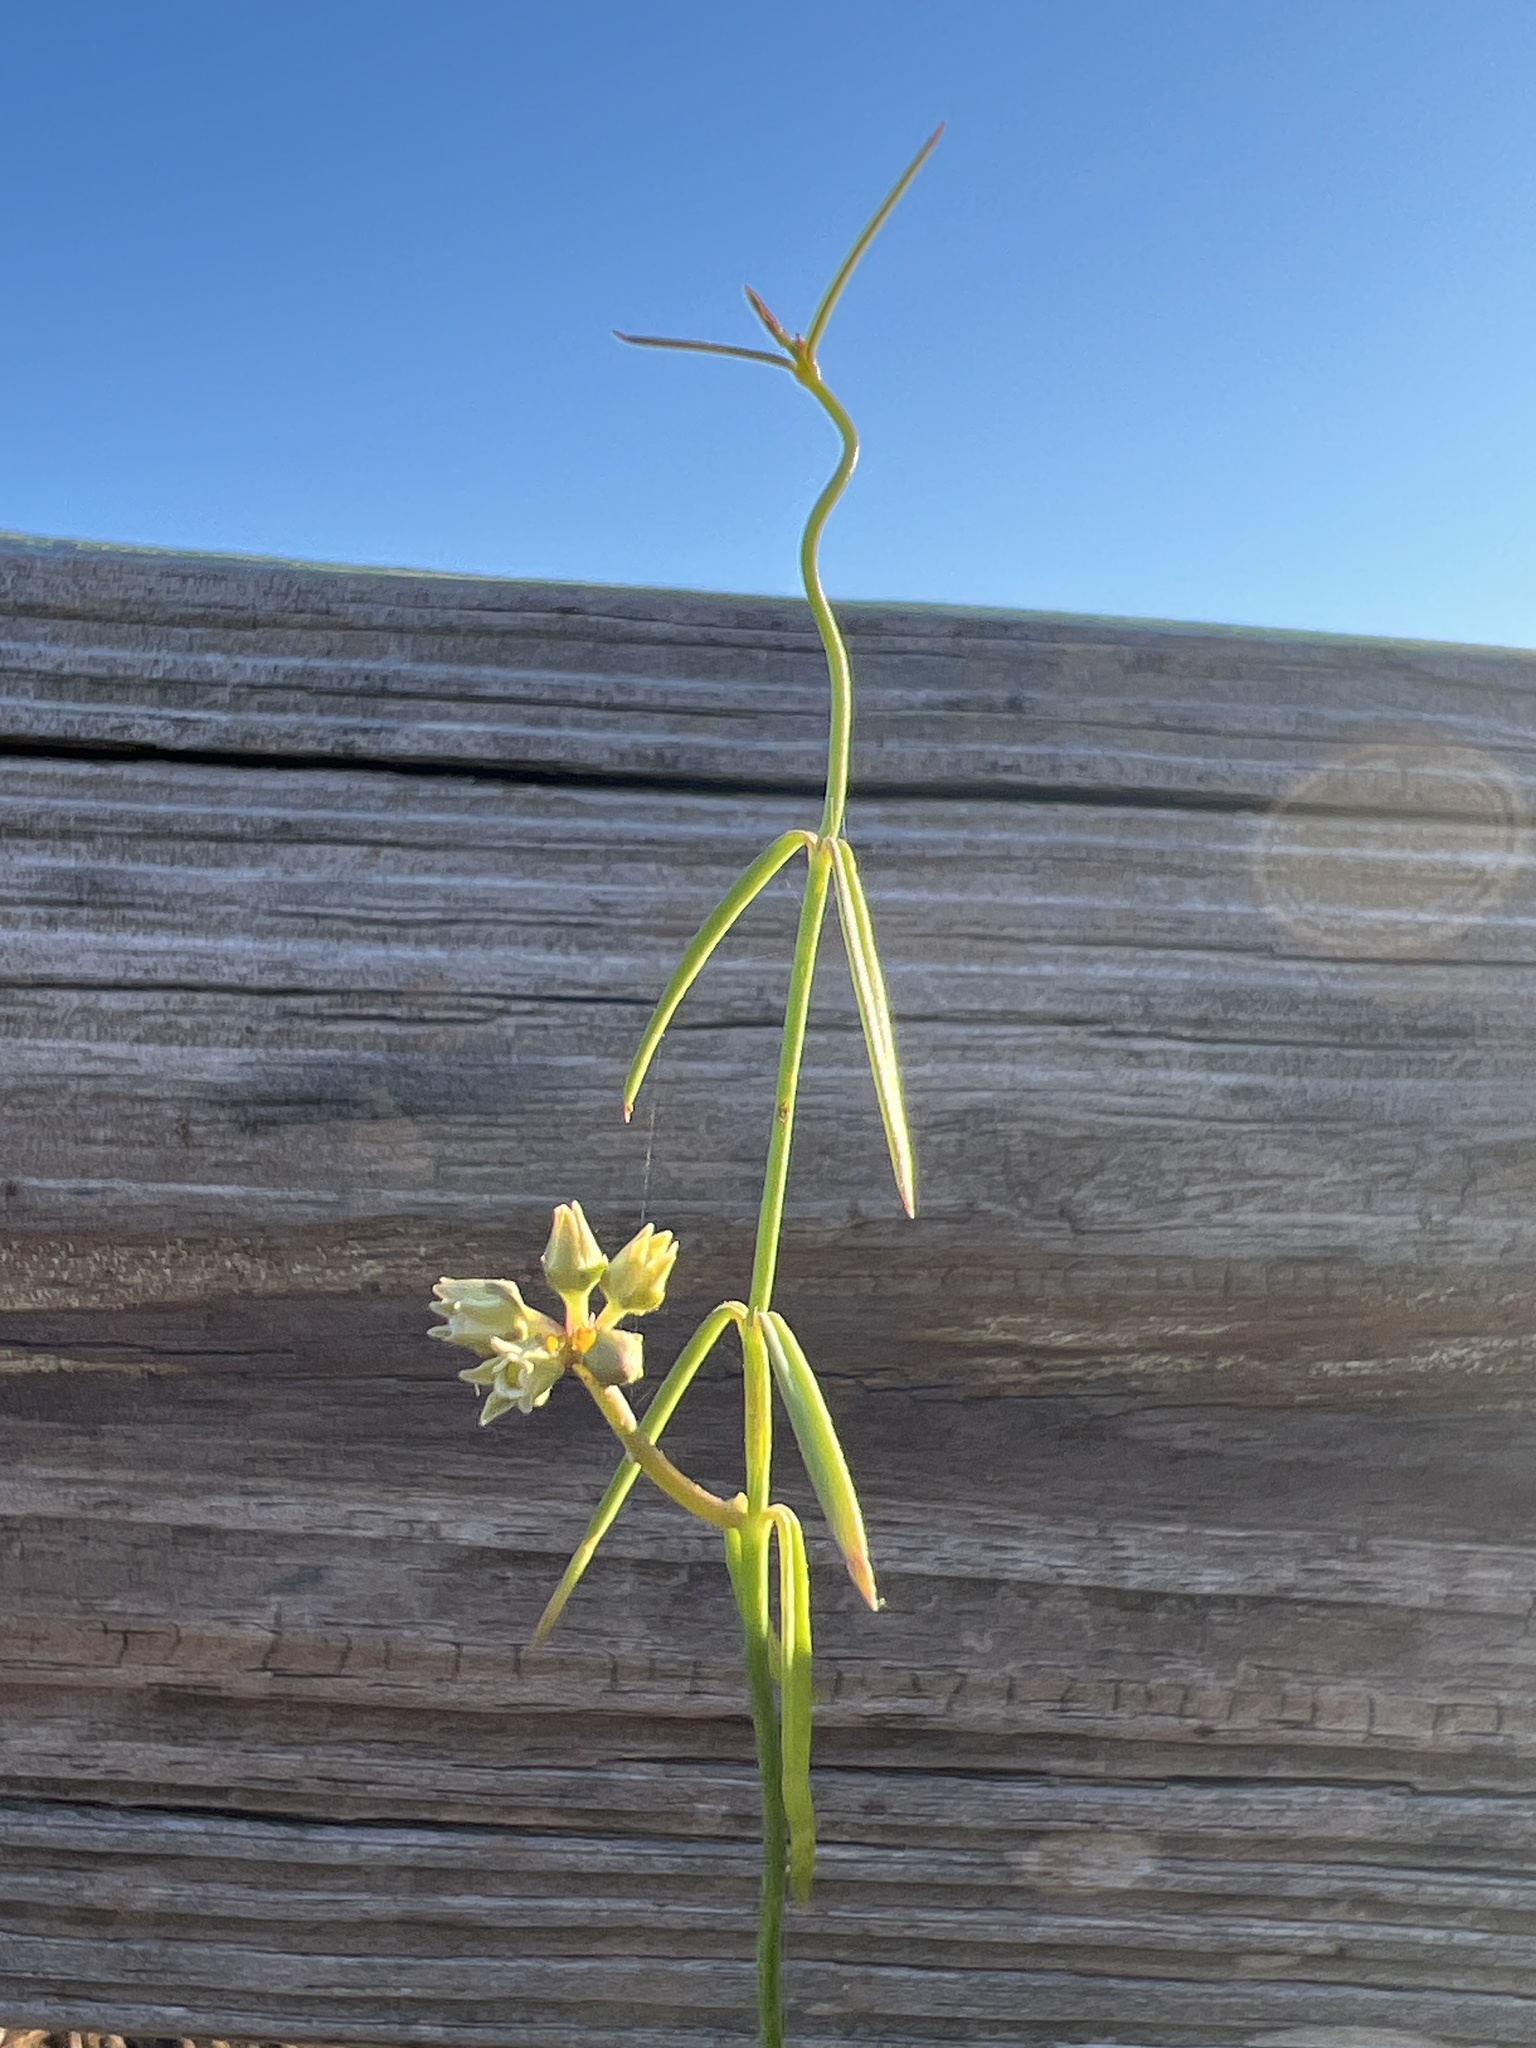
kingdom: Plantae
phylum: Tracheophyta
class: Magnoliopsida
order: Gentianales
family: Apocynaceae
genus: Pattalias
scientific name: Pattalias
